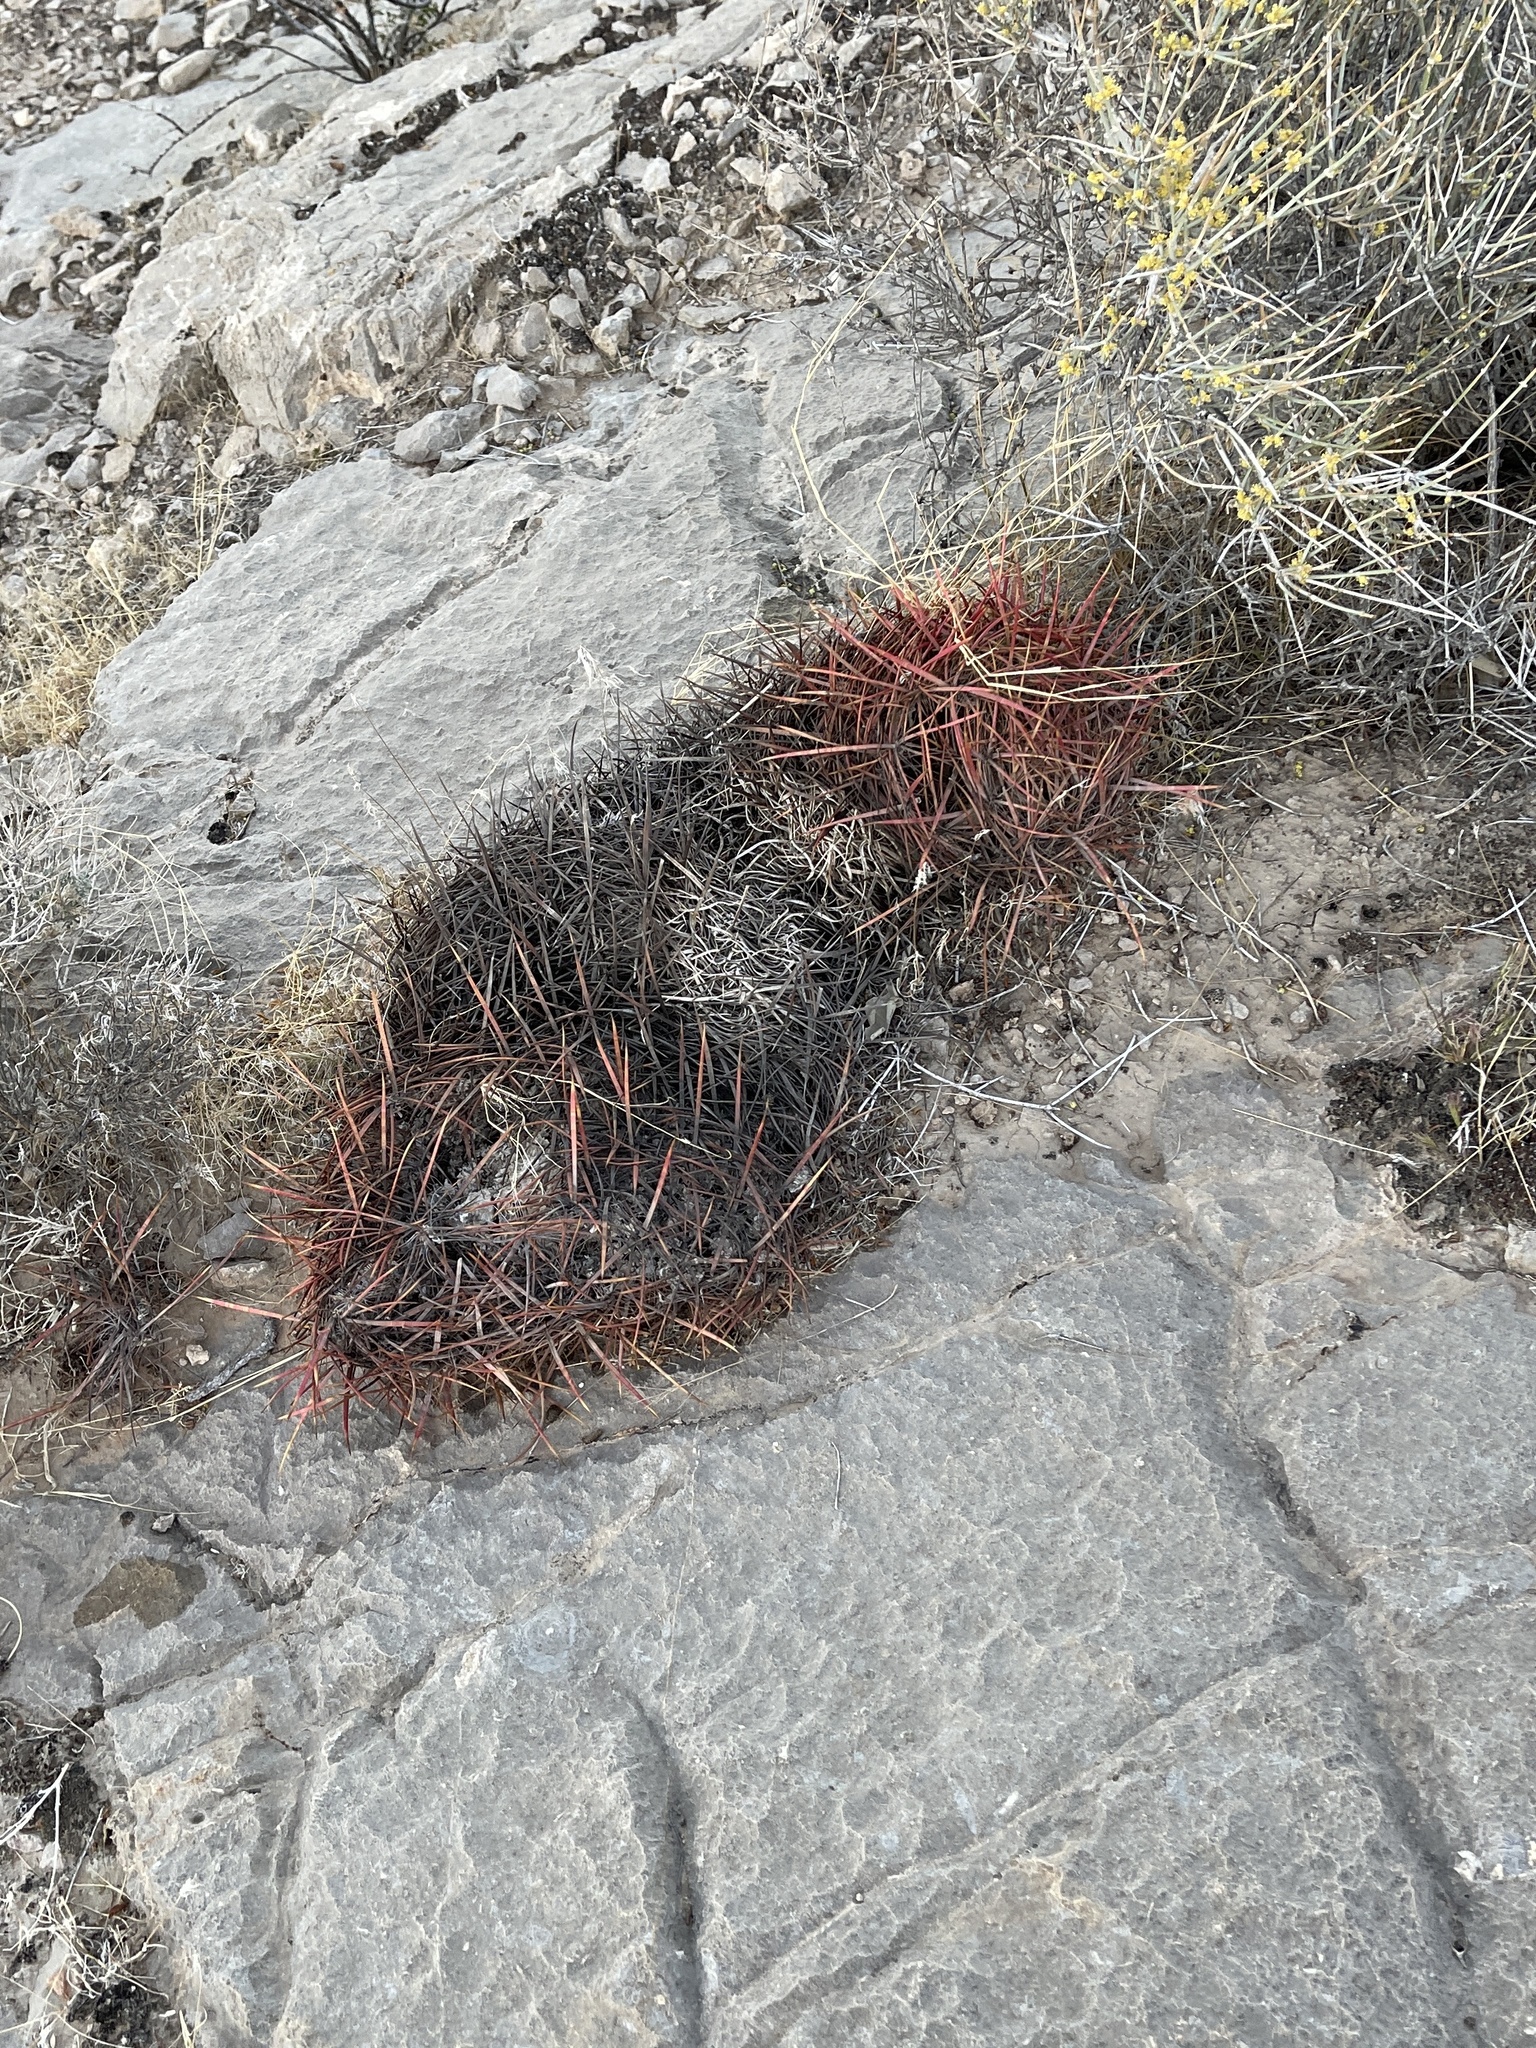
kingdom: Plantae
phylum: Tracheophyta
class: Magnoliopsida
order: Caryophyllales
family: Cactaceae
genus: Ferocactus
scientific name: Ferocactus cylindraceus
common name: California barrel cactus
